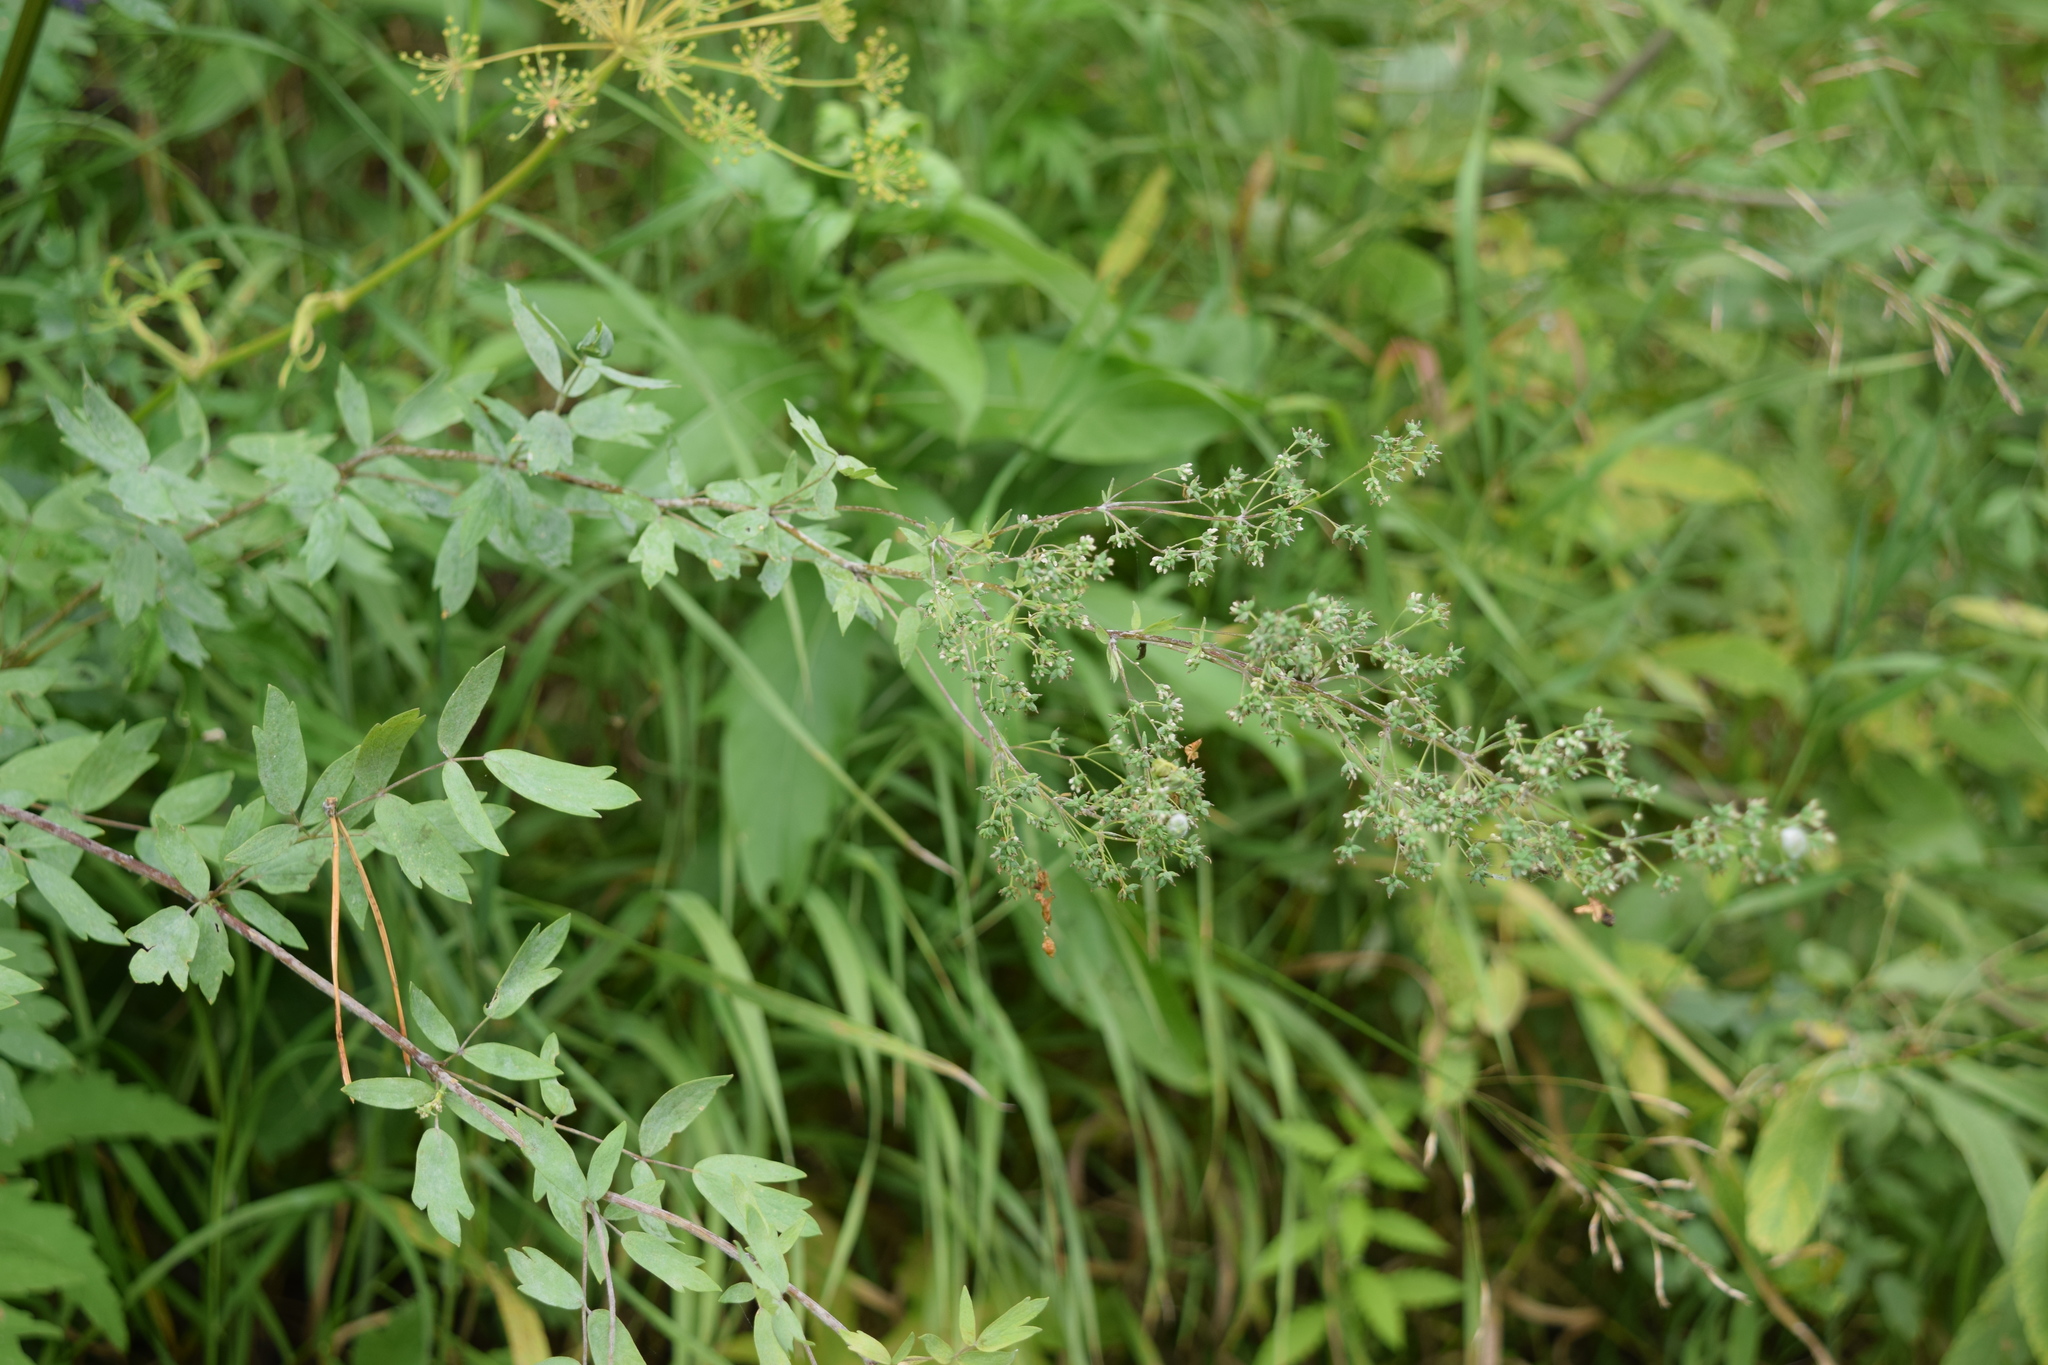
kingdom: Plantae
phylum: Tracheophyta
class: Magnoliopsida
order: Ranunculales
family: Ranunculaceae
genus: Thalictrum
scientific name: Thalictrum simplex
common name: Small meadow-rue
